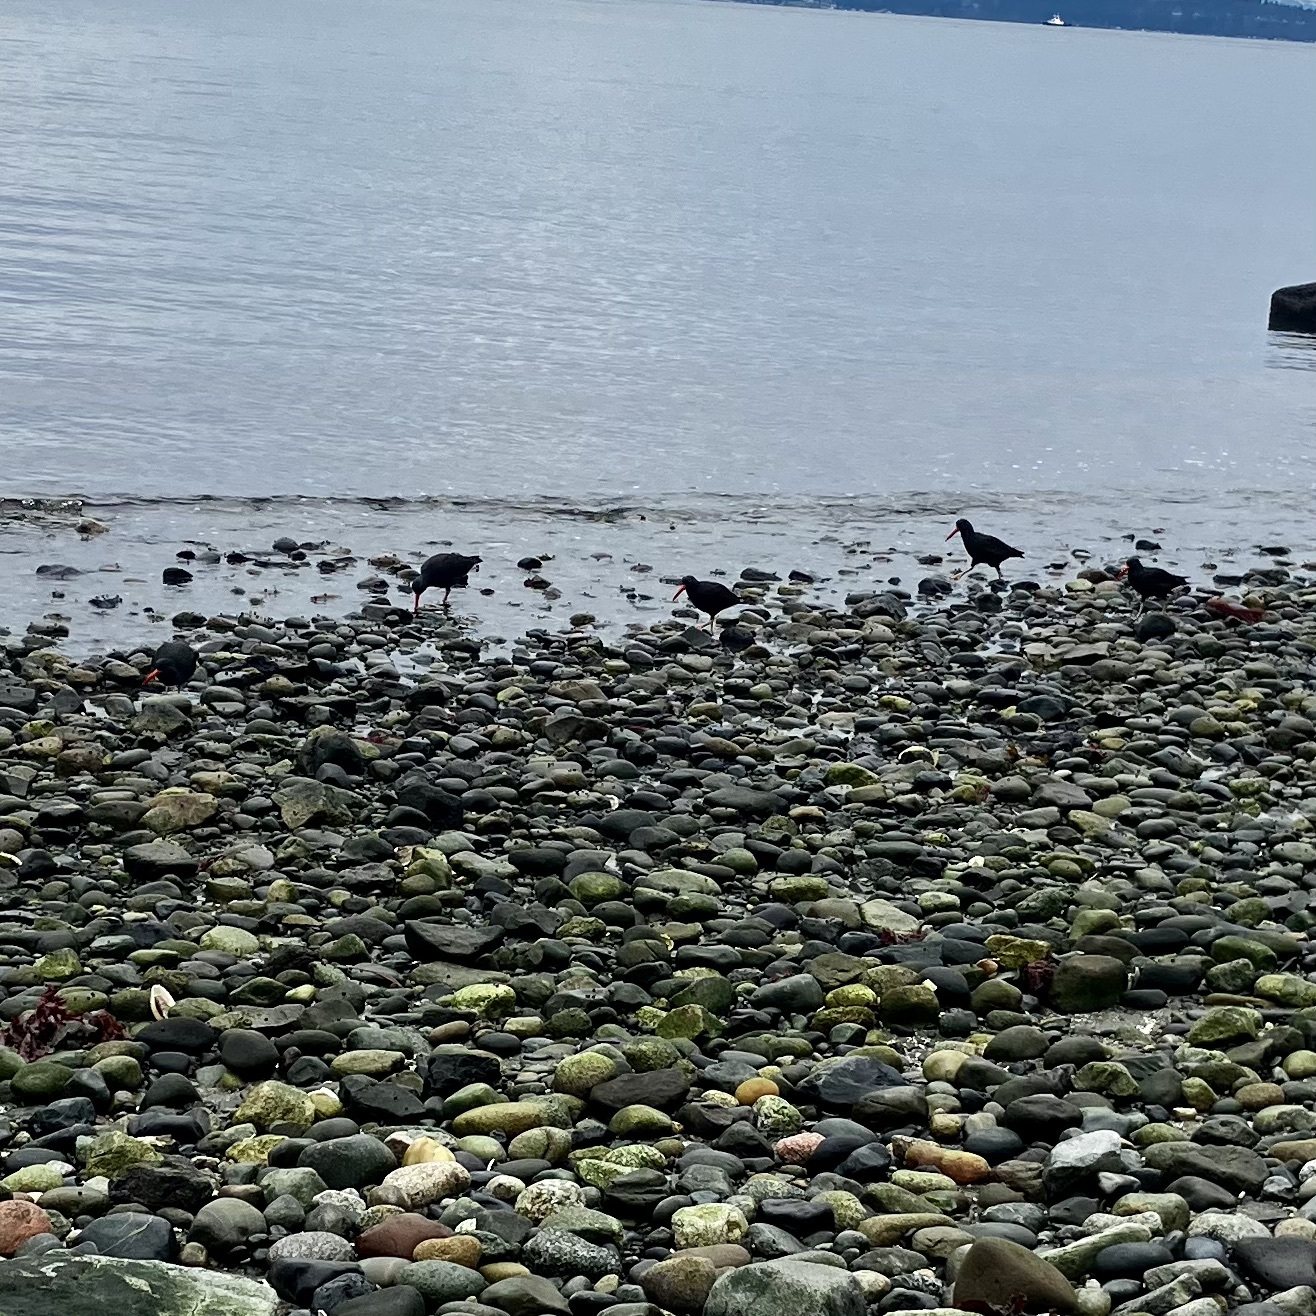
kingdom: Animalia
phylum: Chordata
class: Aves
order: Charadriiformes
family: Haematopodidae
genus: Haematopus
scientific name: Haematopus bachmani
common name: Black oystercatcher
